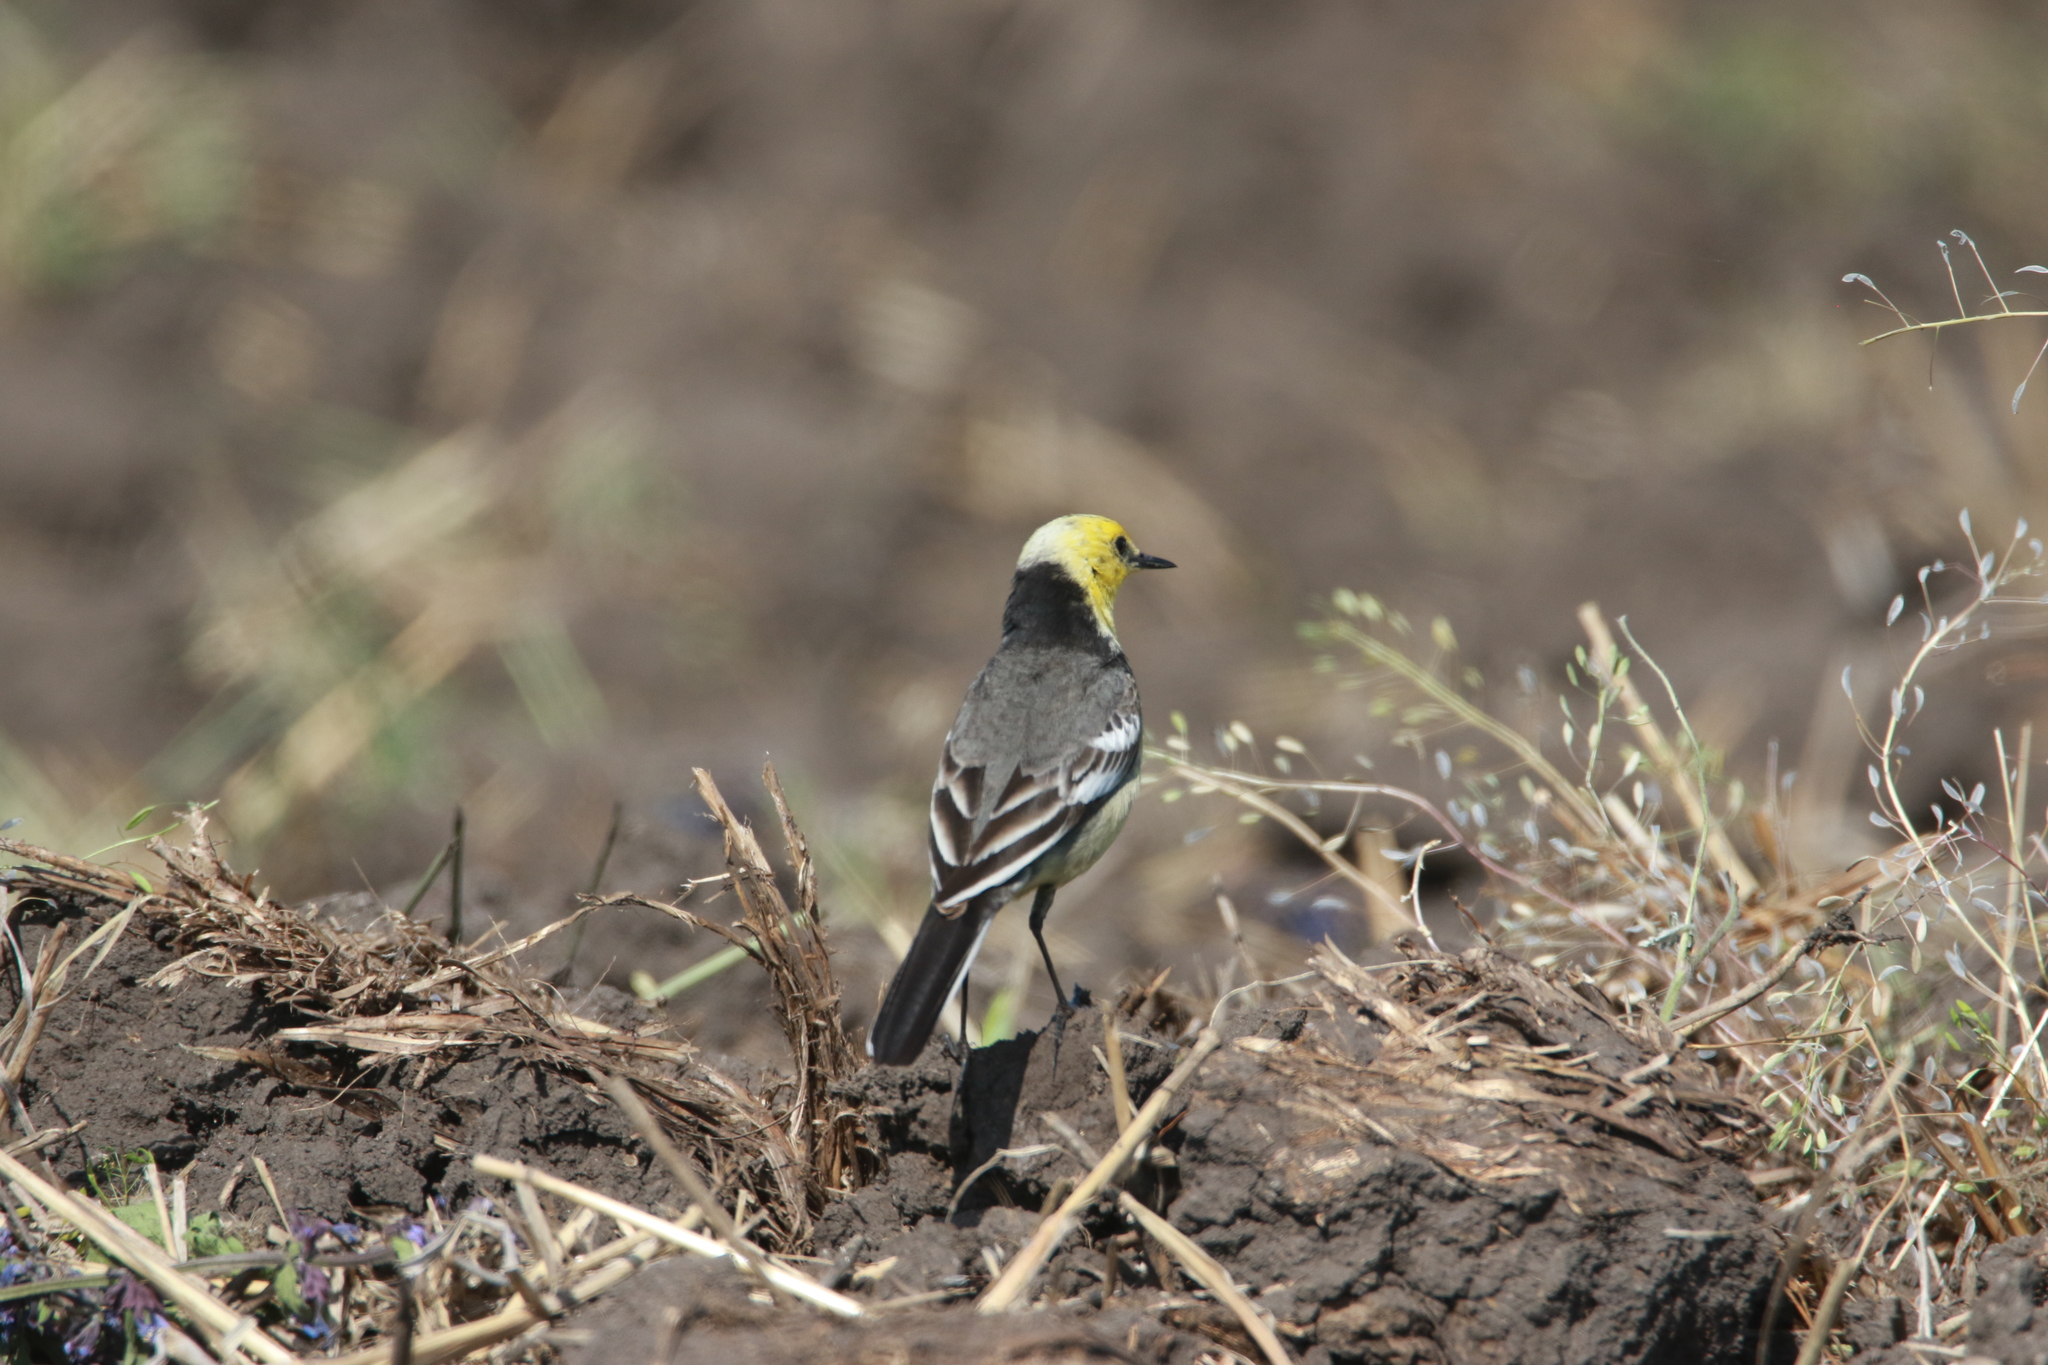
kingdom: Animalia
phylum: Chordata
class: Aves
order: Passeriformes
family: Motacillidae
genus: Motacilla
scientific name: Motacilla citreola
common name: Citrine wagtail
